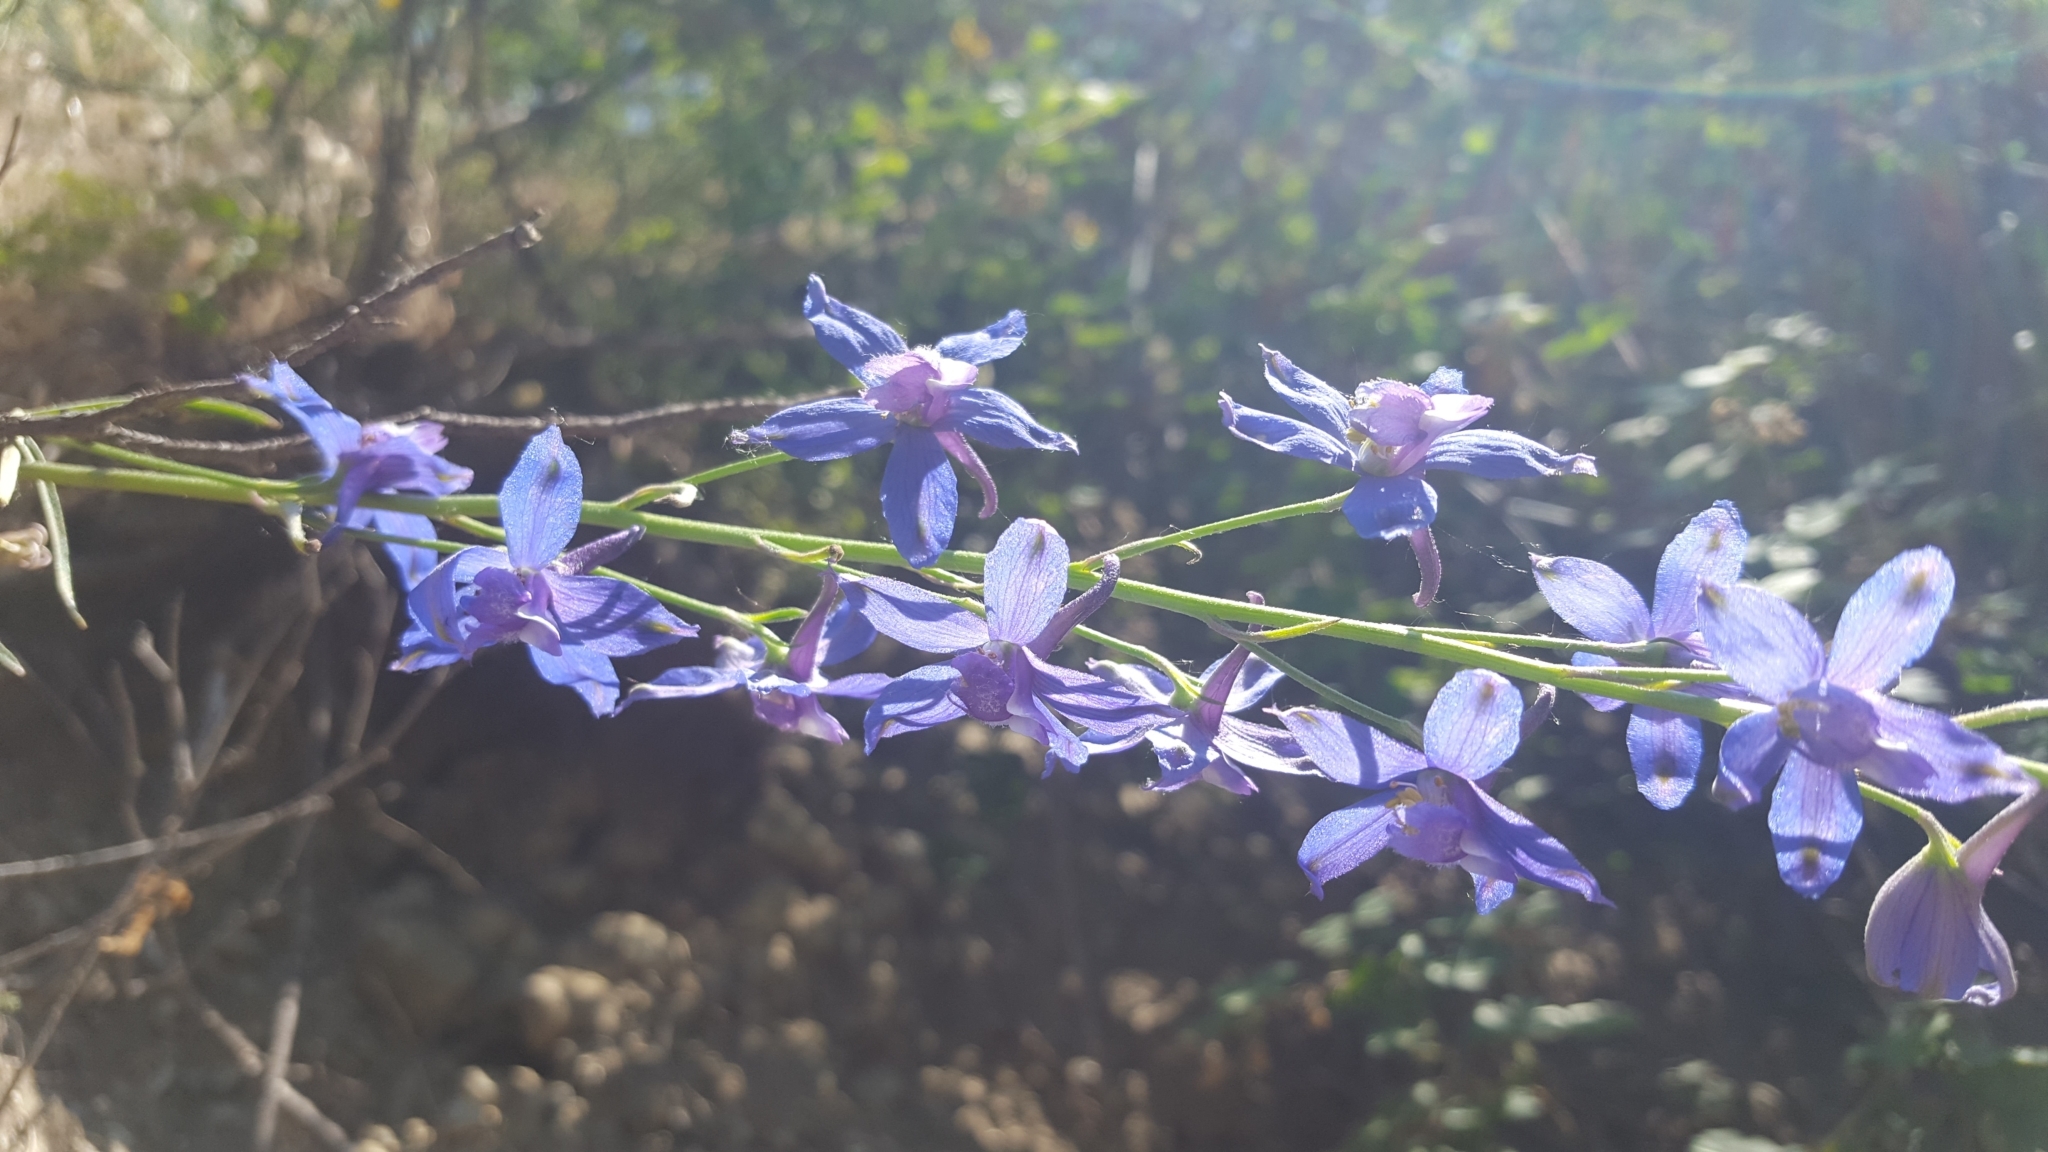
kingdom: Plantae
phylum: Tracheophyta
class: Magnoliopsida
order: Ranunculales
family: Ranunculaceae
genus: Delphinium
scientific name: Delphinium parryi
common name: Parry's larkspur
